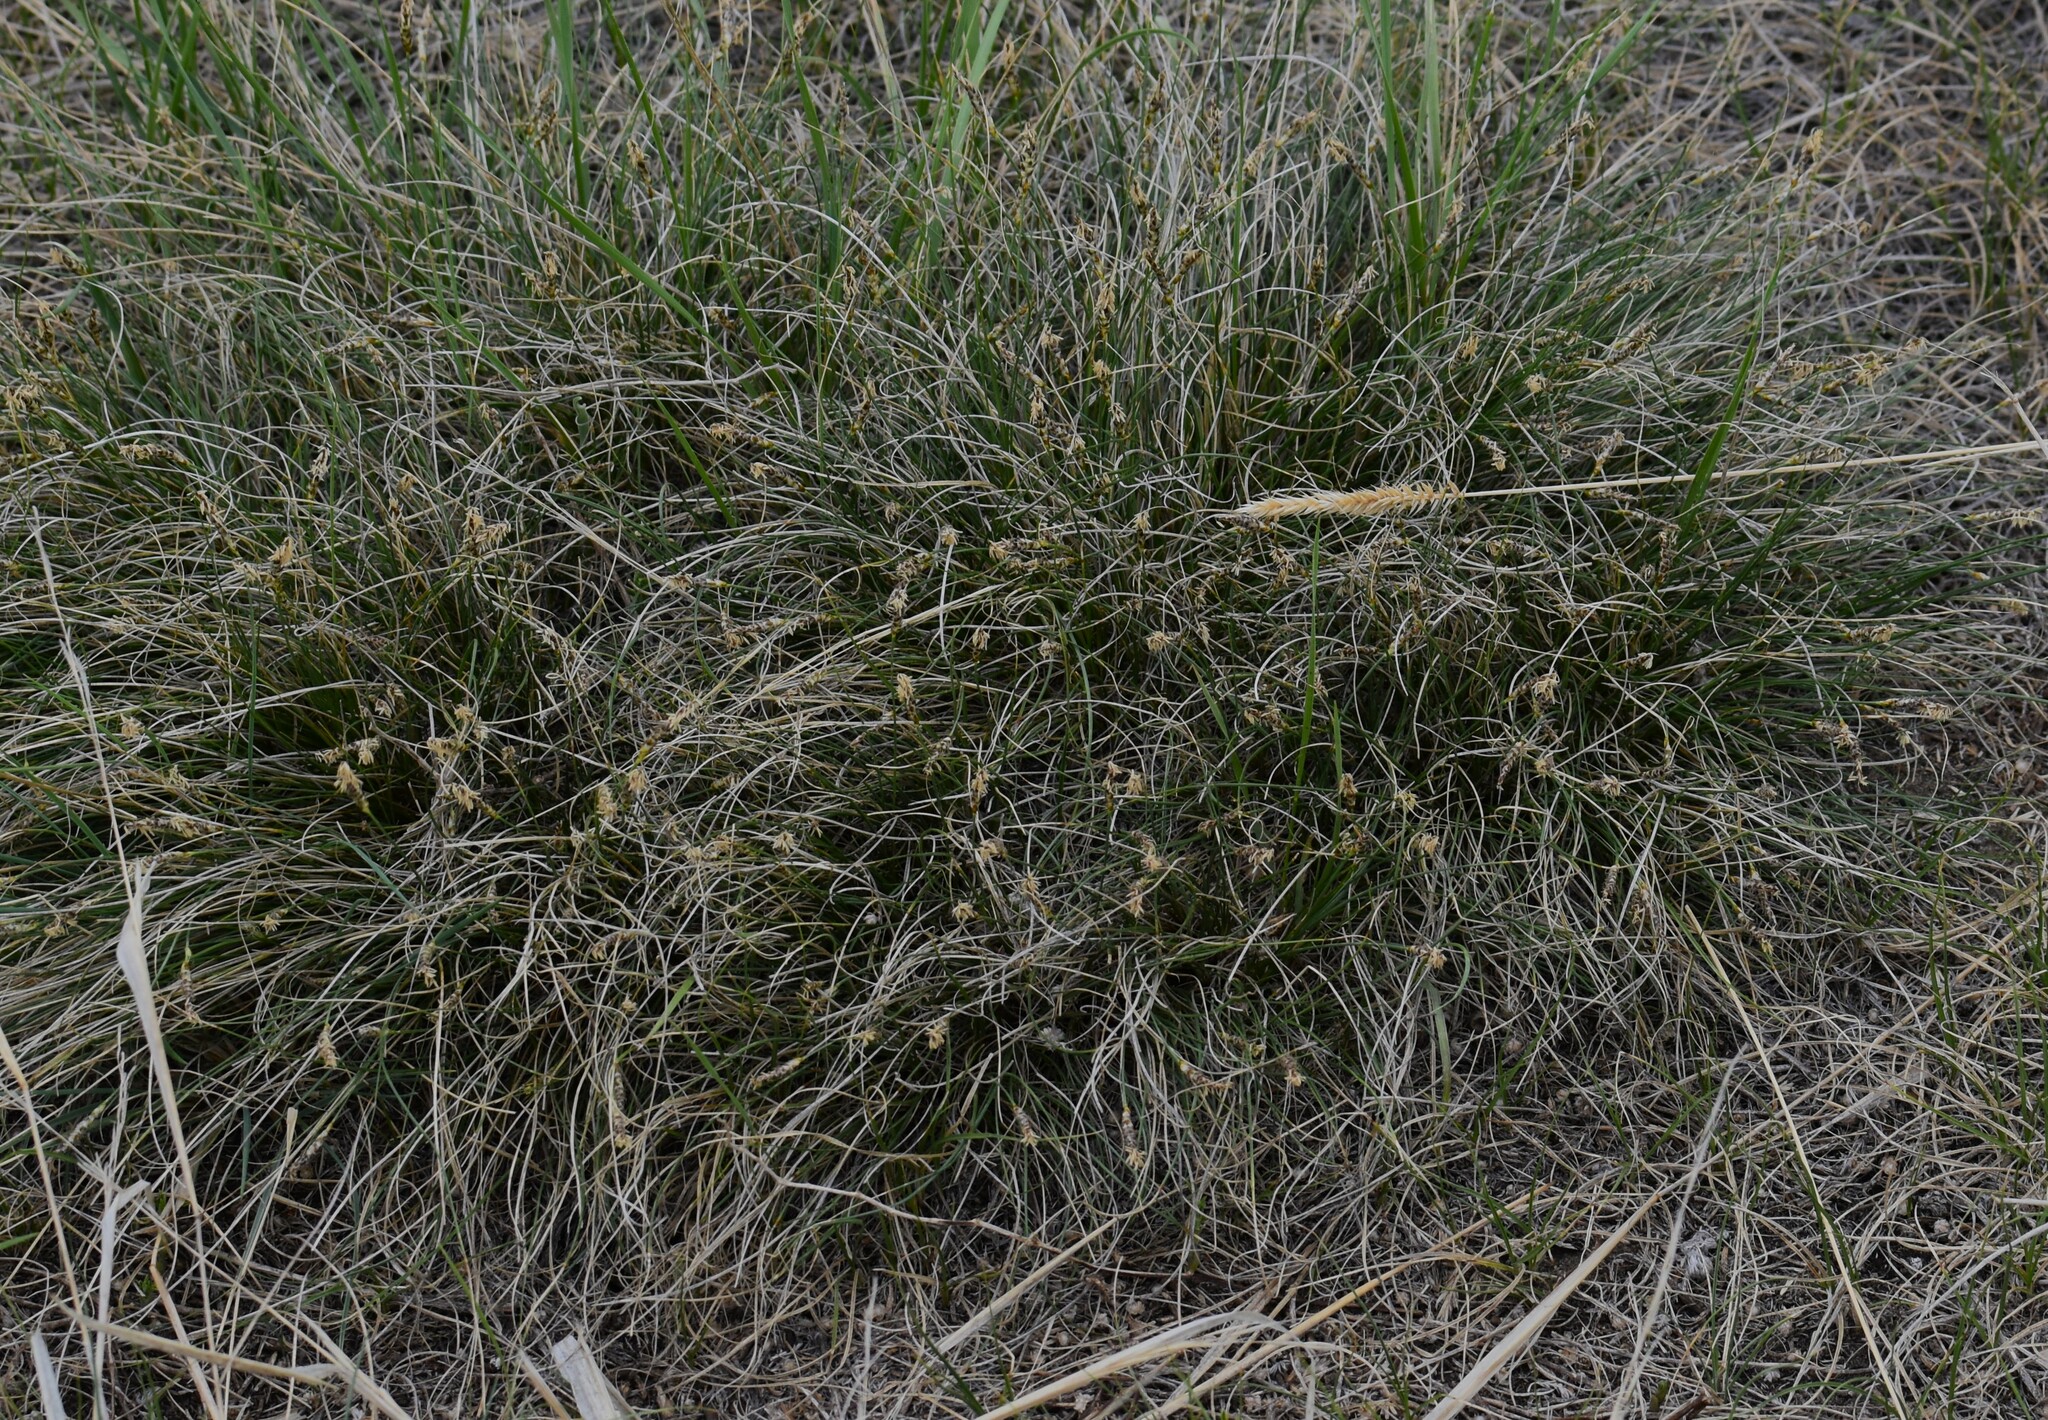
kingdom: Plantae
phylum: Tracheophyta
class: Liliopsida
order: Poales
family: Cyperaceae
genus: Carex
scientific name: Carex filifolia
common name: Threadleaf sedge
